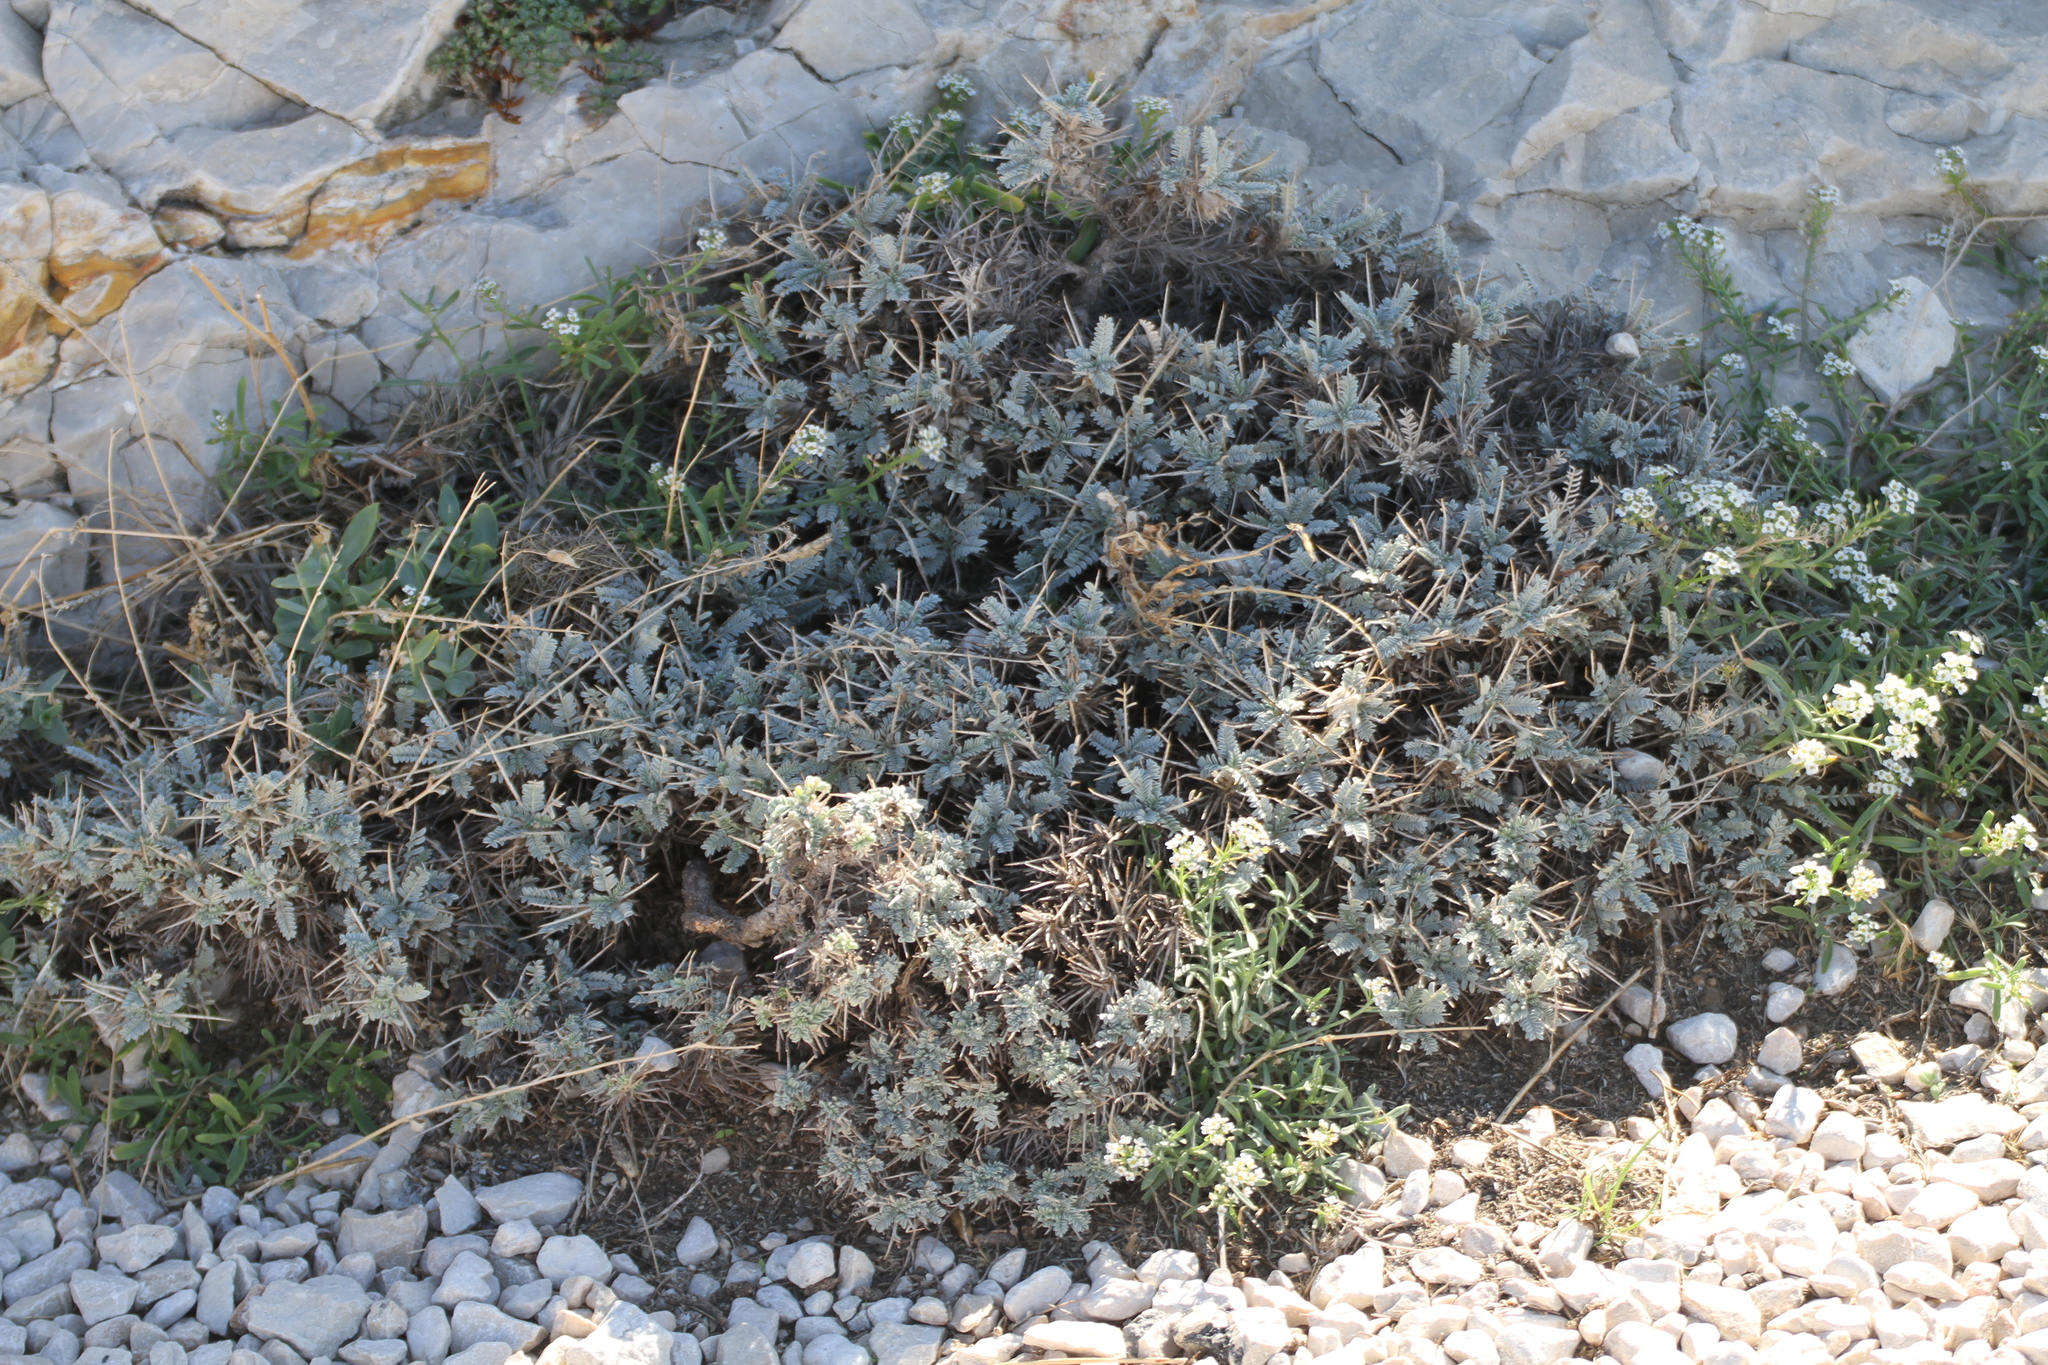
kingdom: Plantae
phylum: Tracheophyta
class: Magnoliopsida
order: Fabales
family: Fabaceae
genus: Astragalus
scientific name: Astragalus tragacantha
